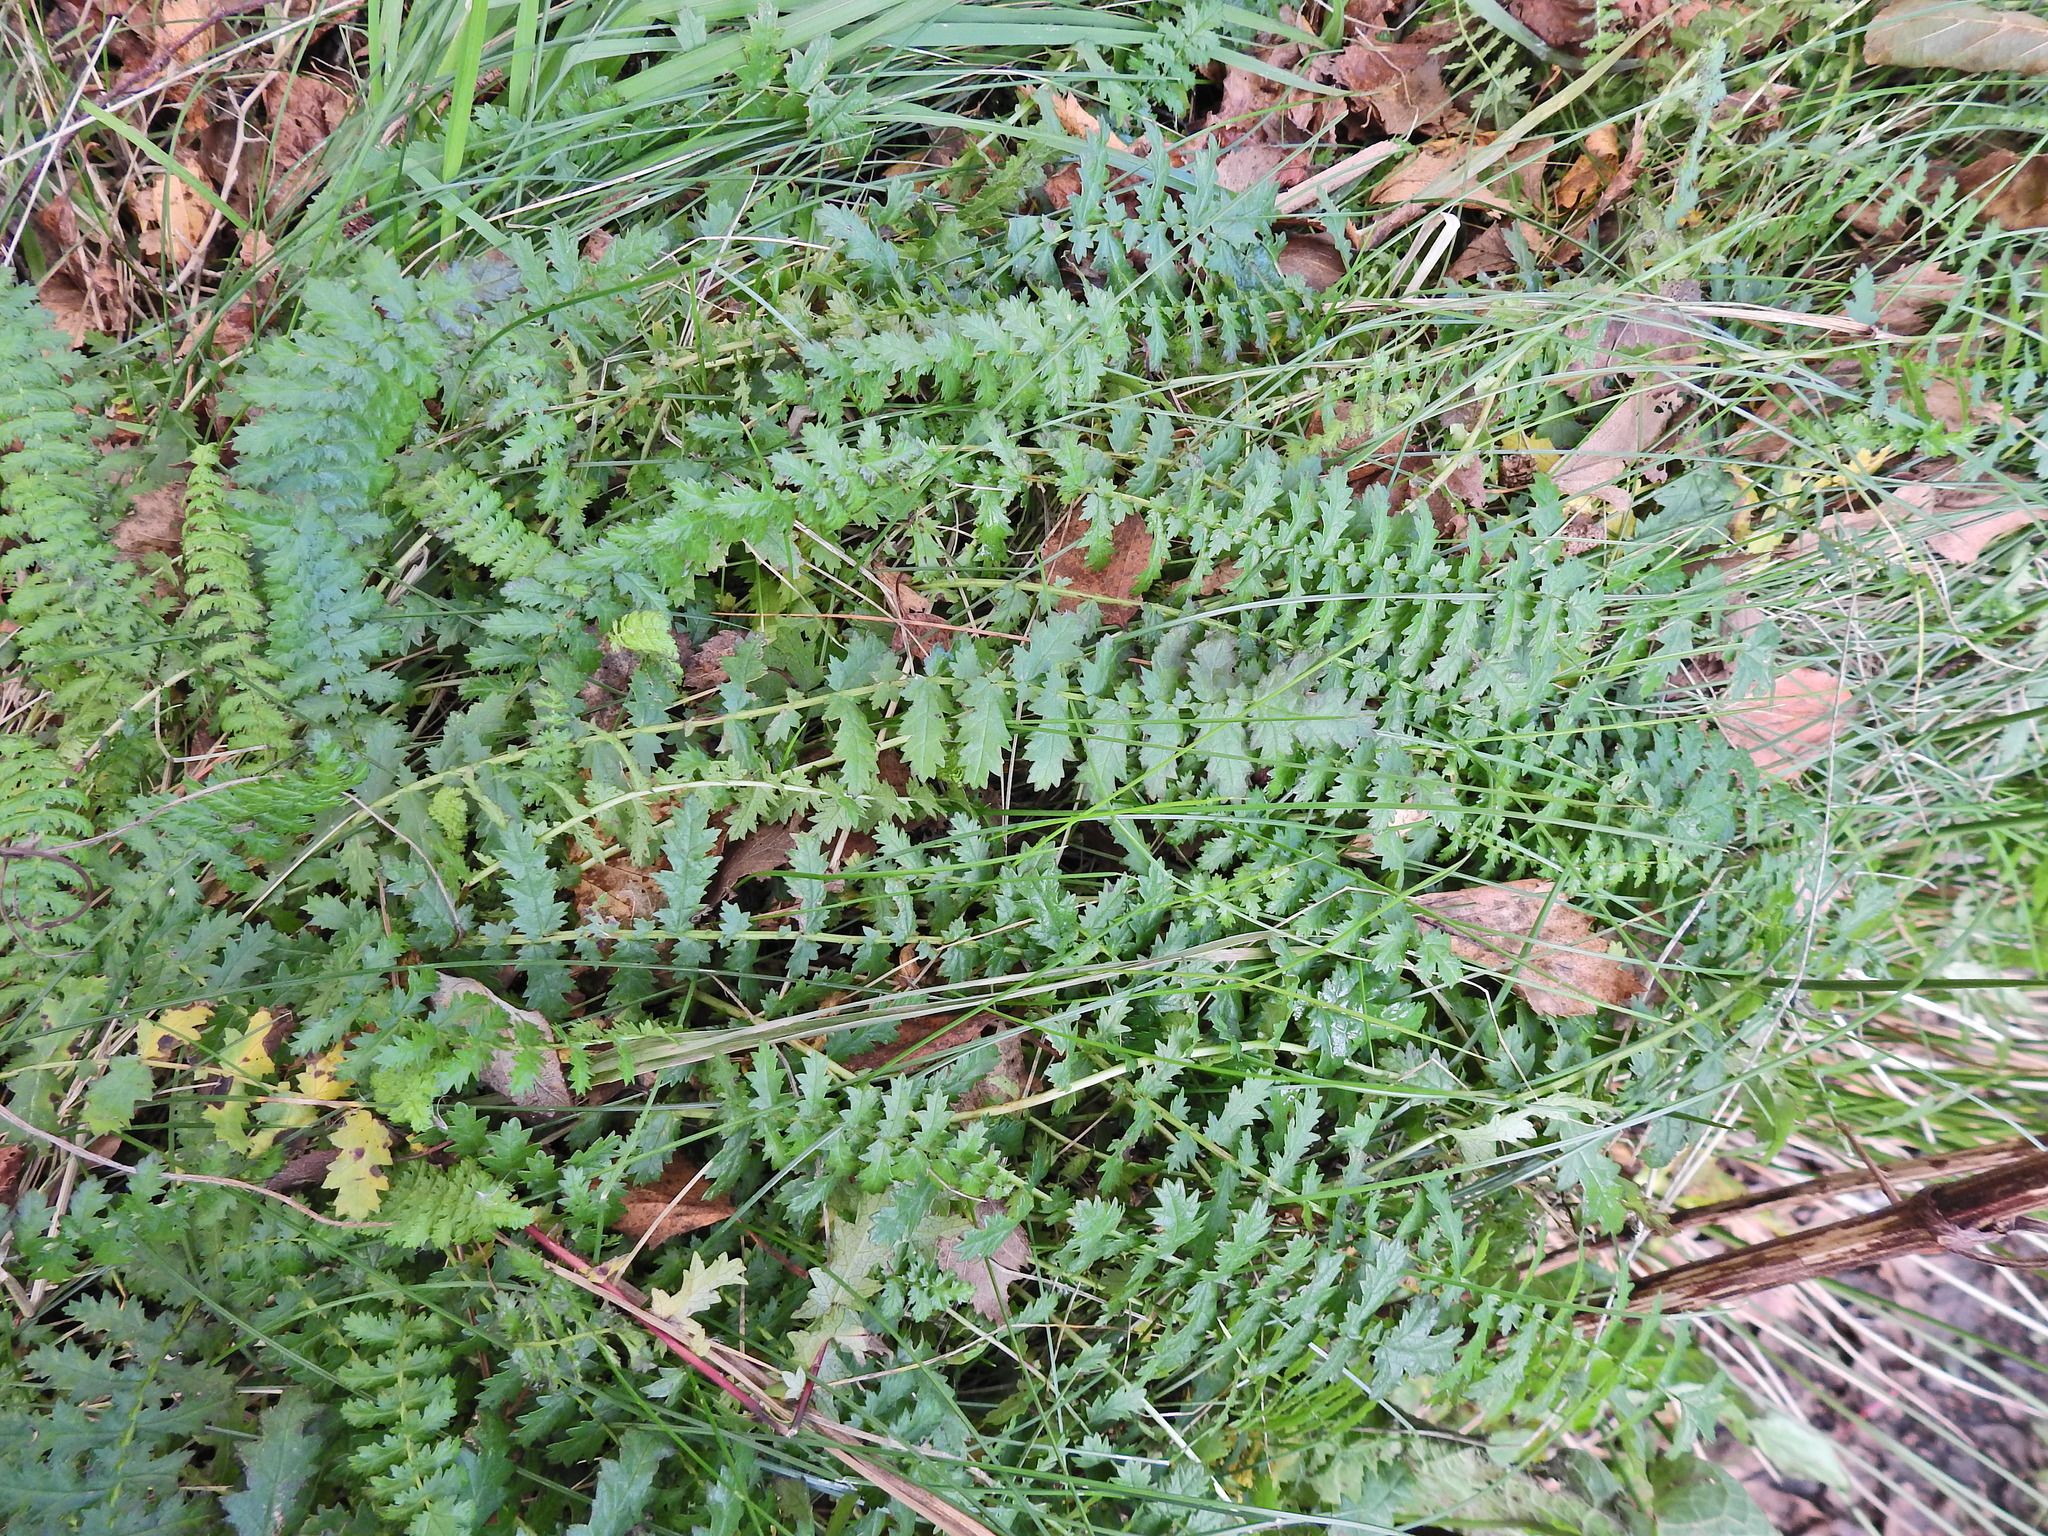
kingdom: Plantae
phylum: Tracheophyta
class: Magnoliopsida
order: Rosales
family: Rosaceae
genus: Filipendula
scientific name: Filipendula vulgaris
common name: Dropwort
